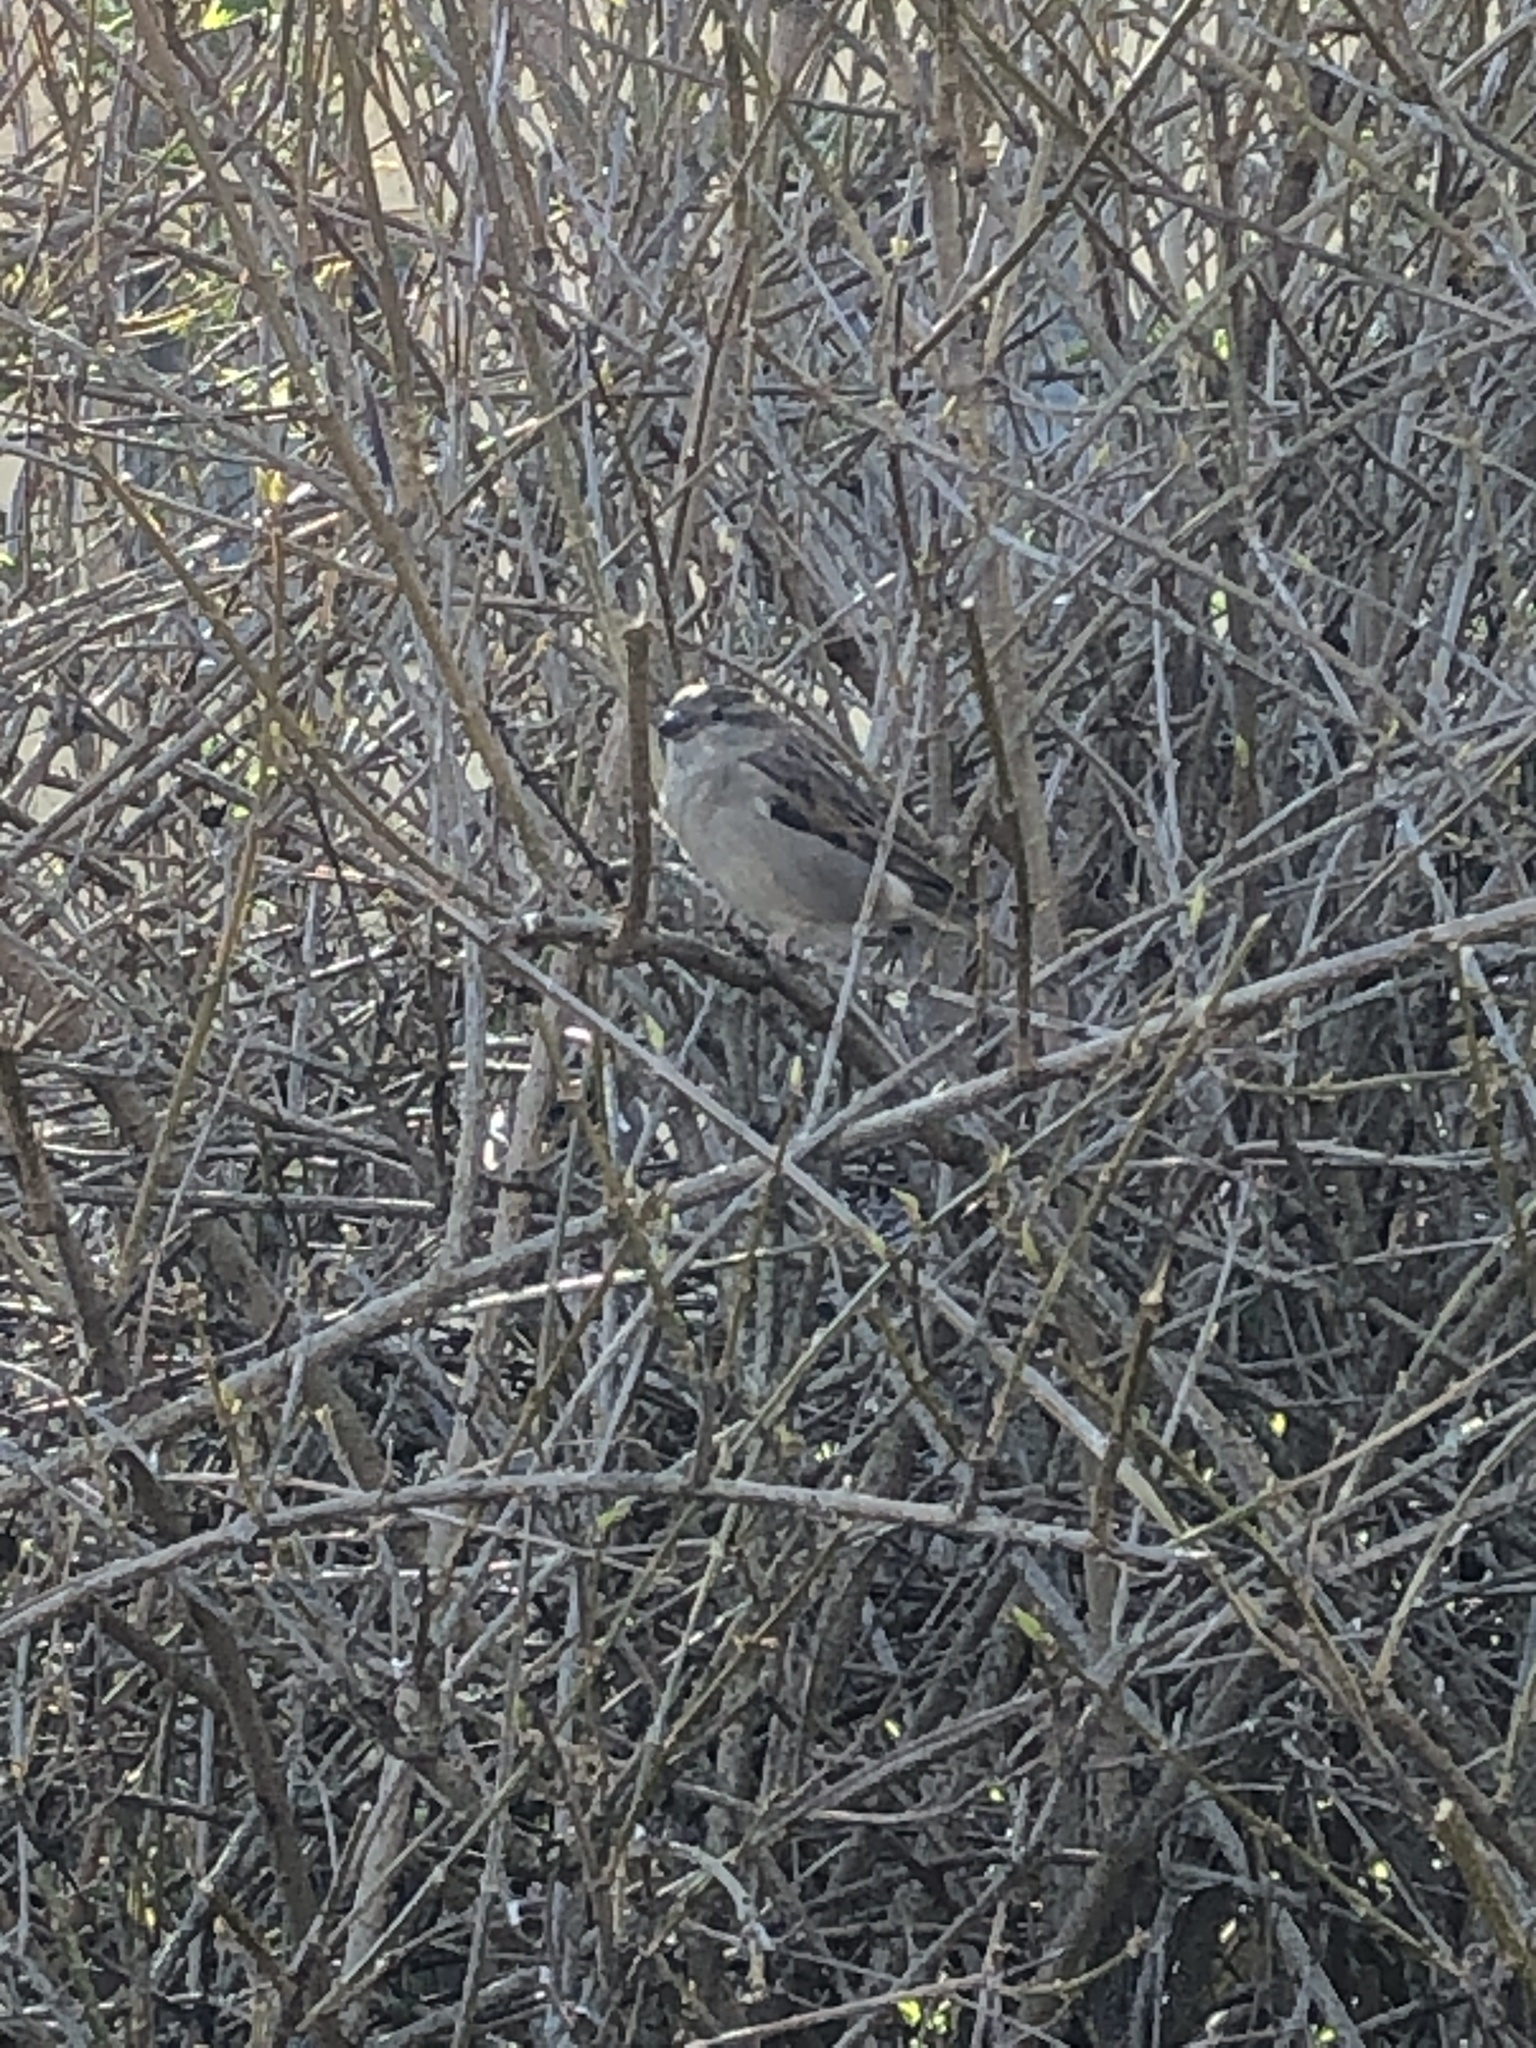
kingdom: Animalia
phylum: Chordata
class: Aves
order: Passeriformes
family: Passeridae
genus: Passer
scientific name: Passer domesticus
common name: House sparrow
